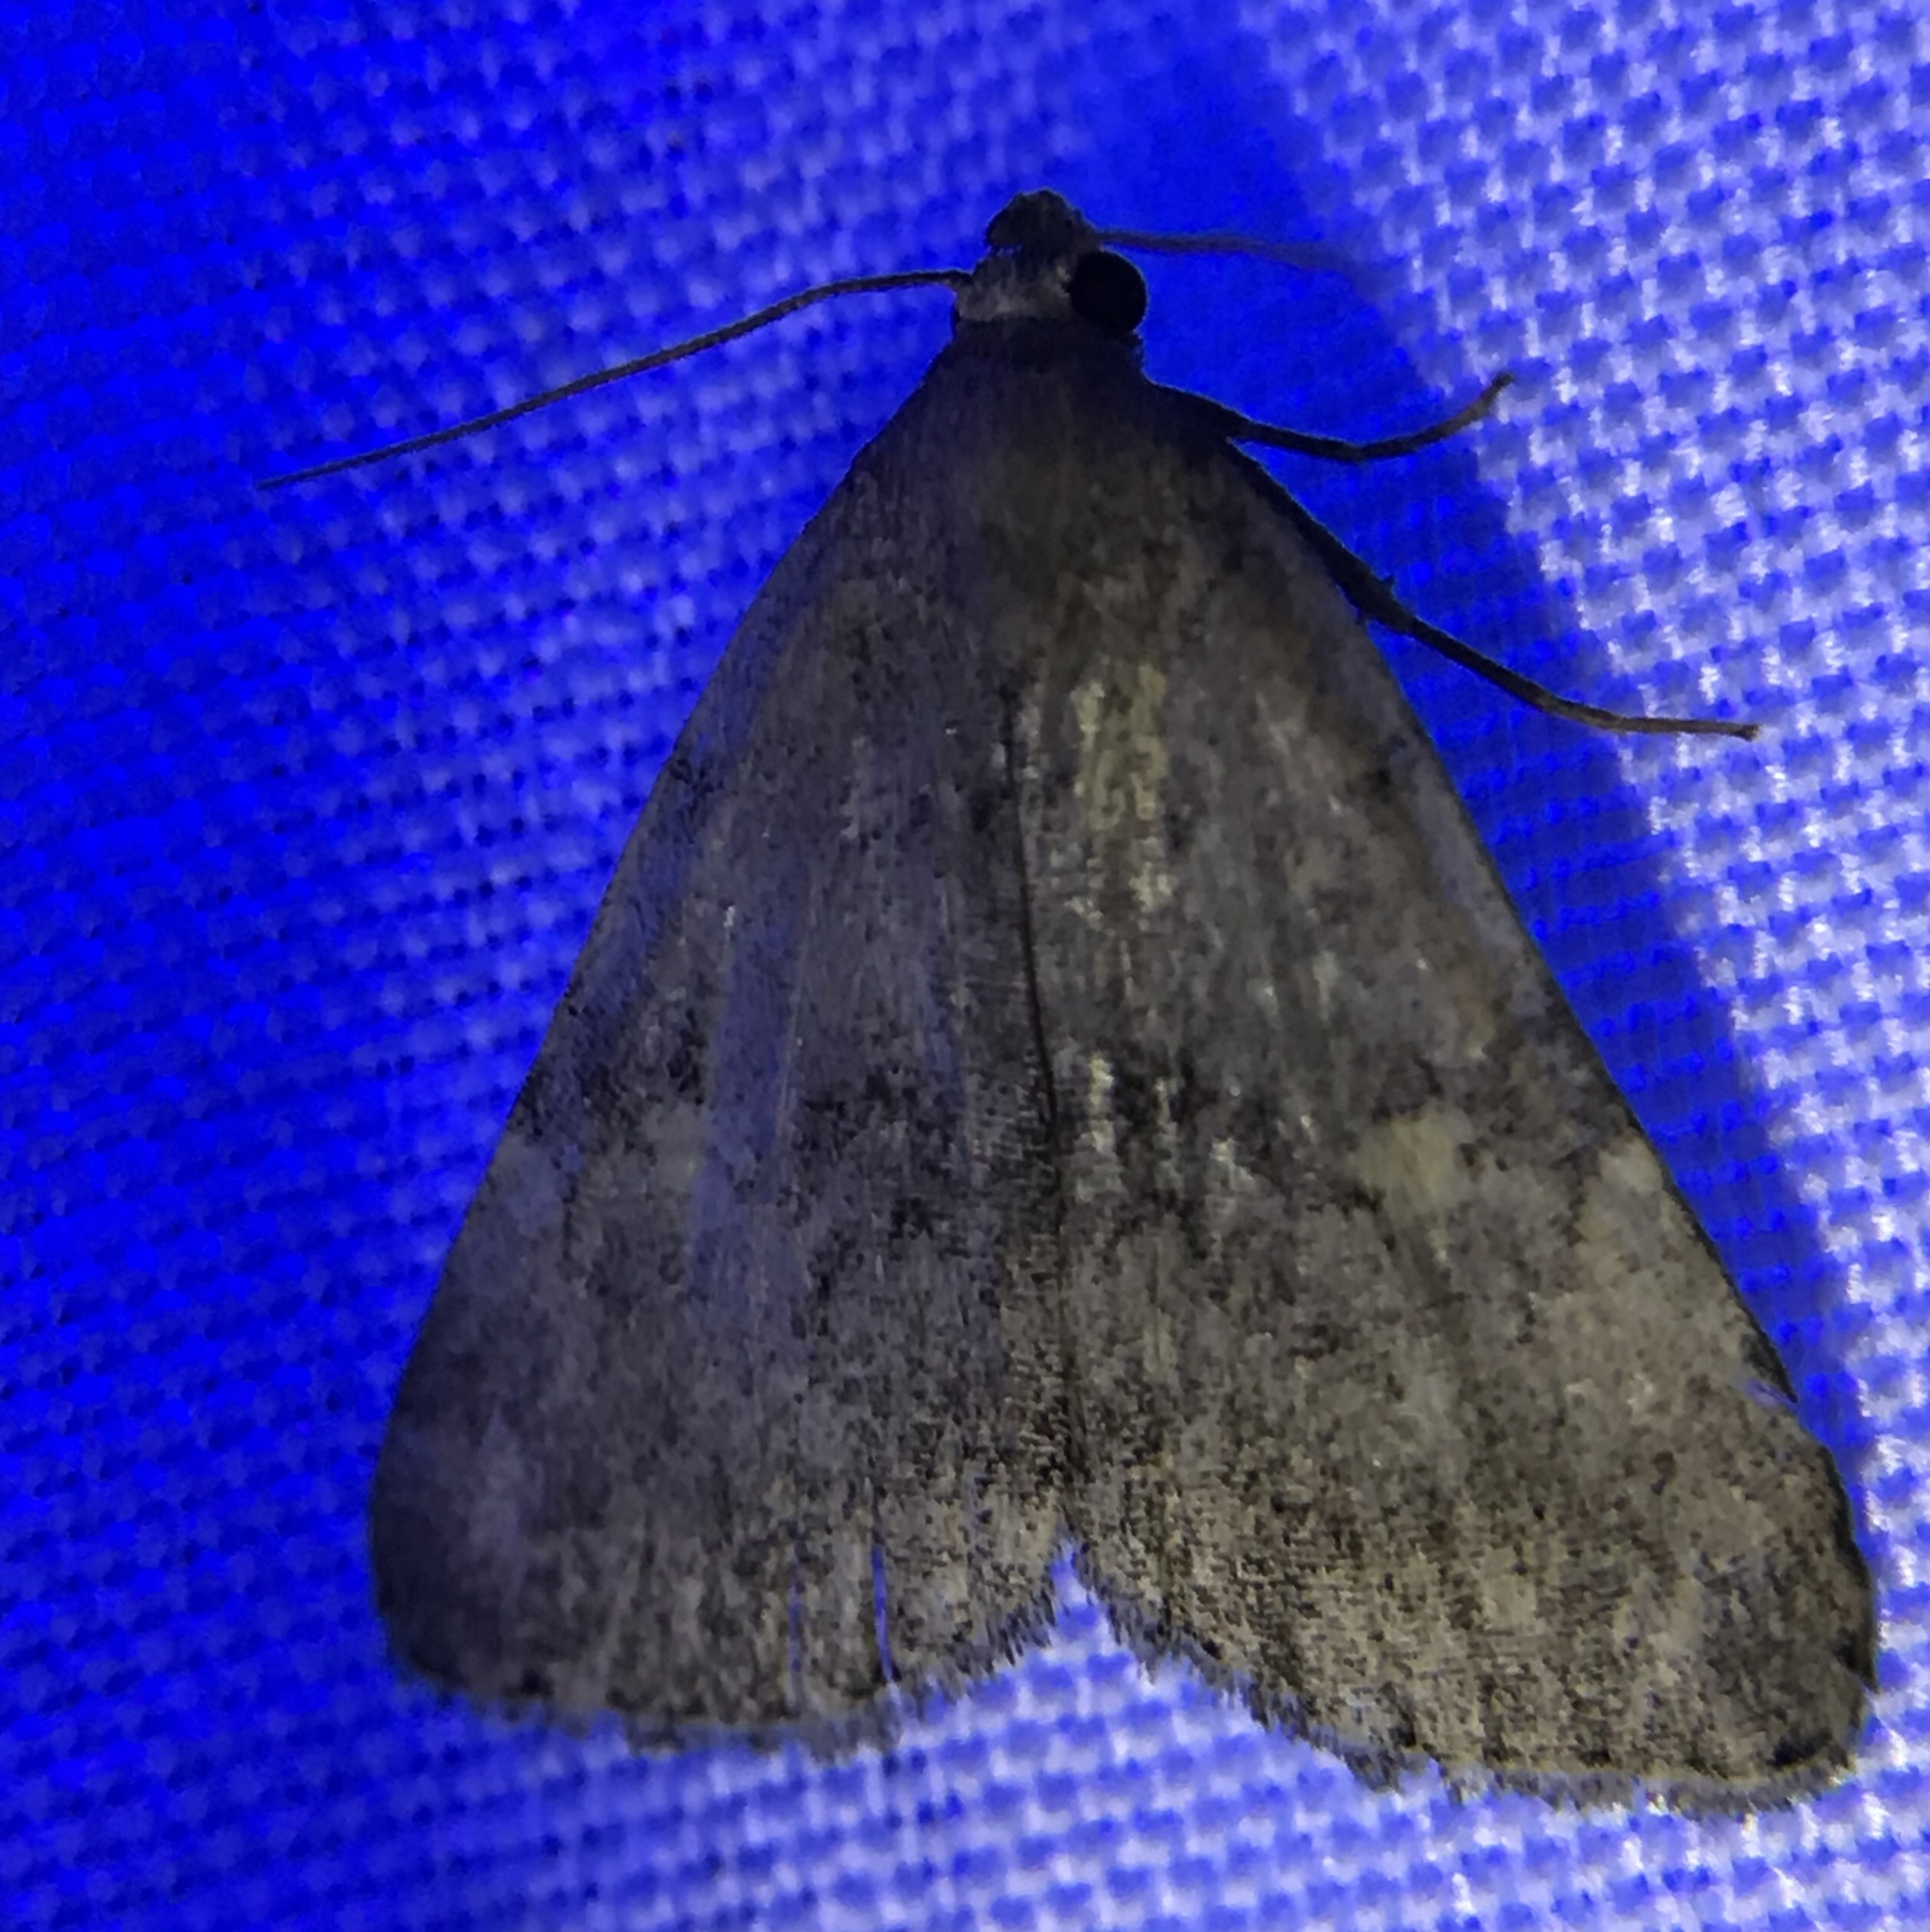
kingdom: Animalia
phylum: Arthropoda
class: Insecta
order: Lepidoptera
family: Erebidae
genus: Idia
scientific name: Idia aemula
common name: Common idia moth
